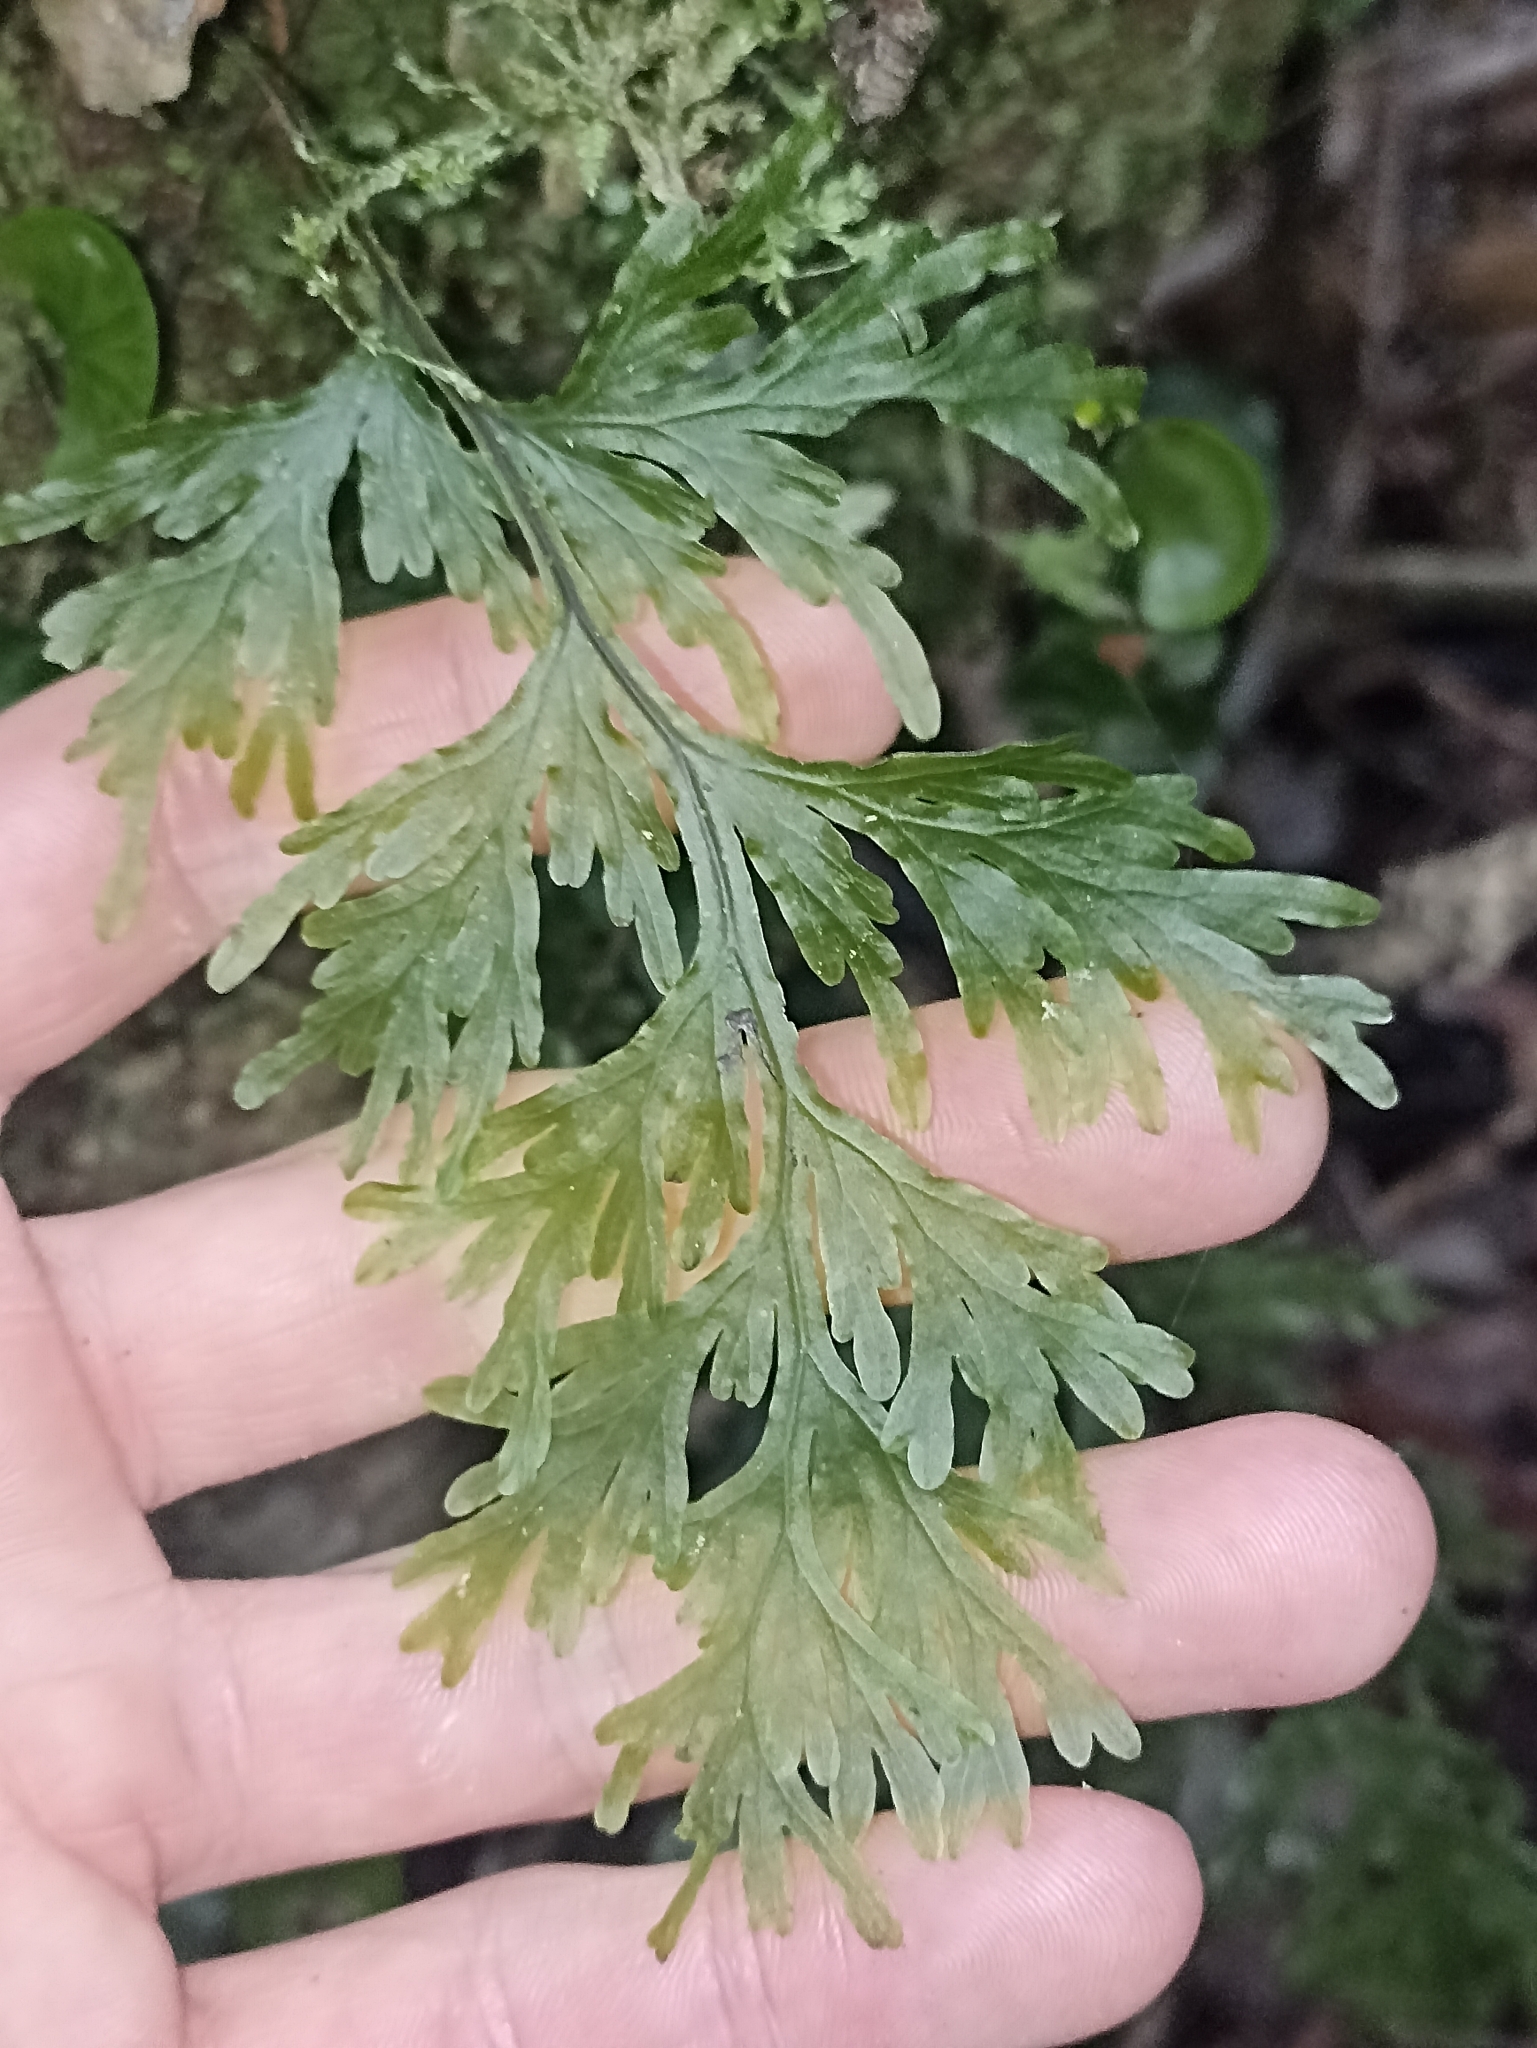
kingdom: Plantae
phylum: Tracheophyta
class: Polypodiopsida
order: Hymenophyllales
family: Hymenophyllaceae
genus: Hymenophyllum
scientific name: Hymenophyllum dilatatum
